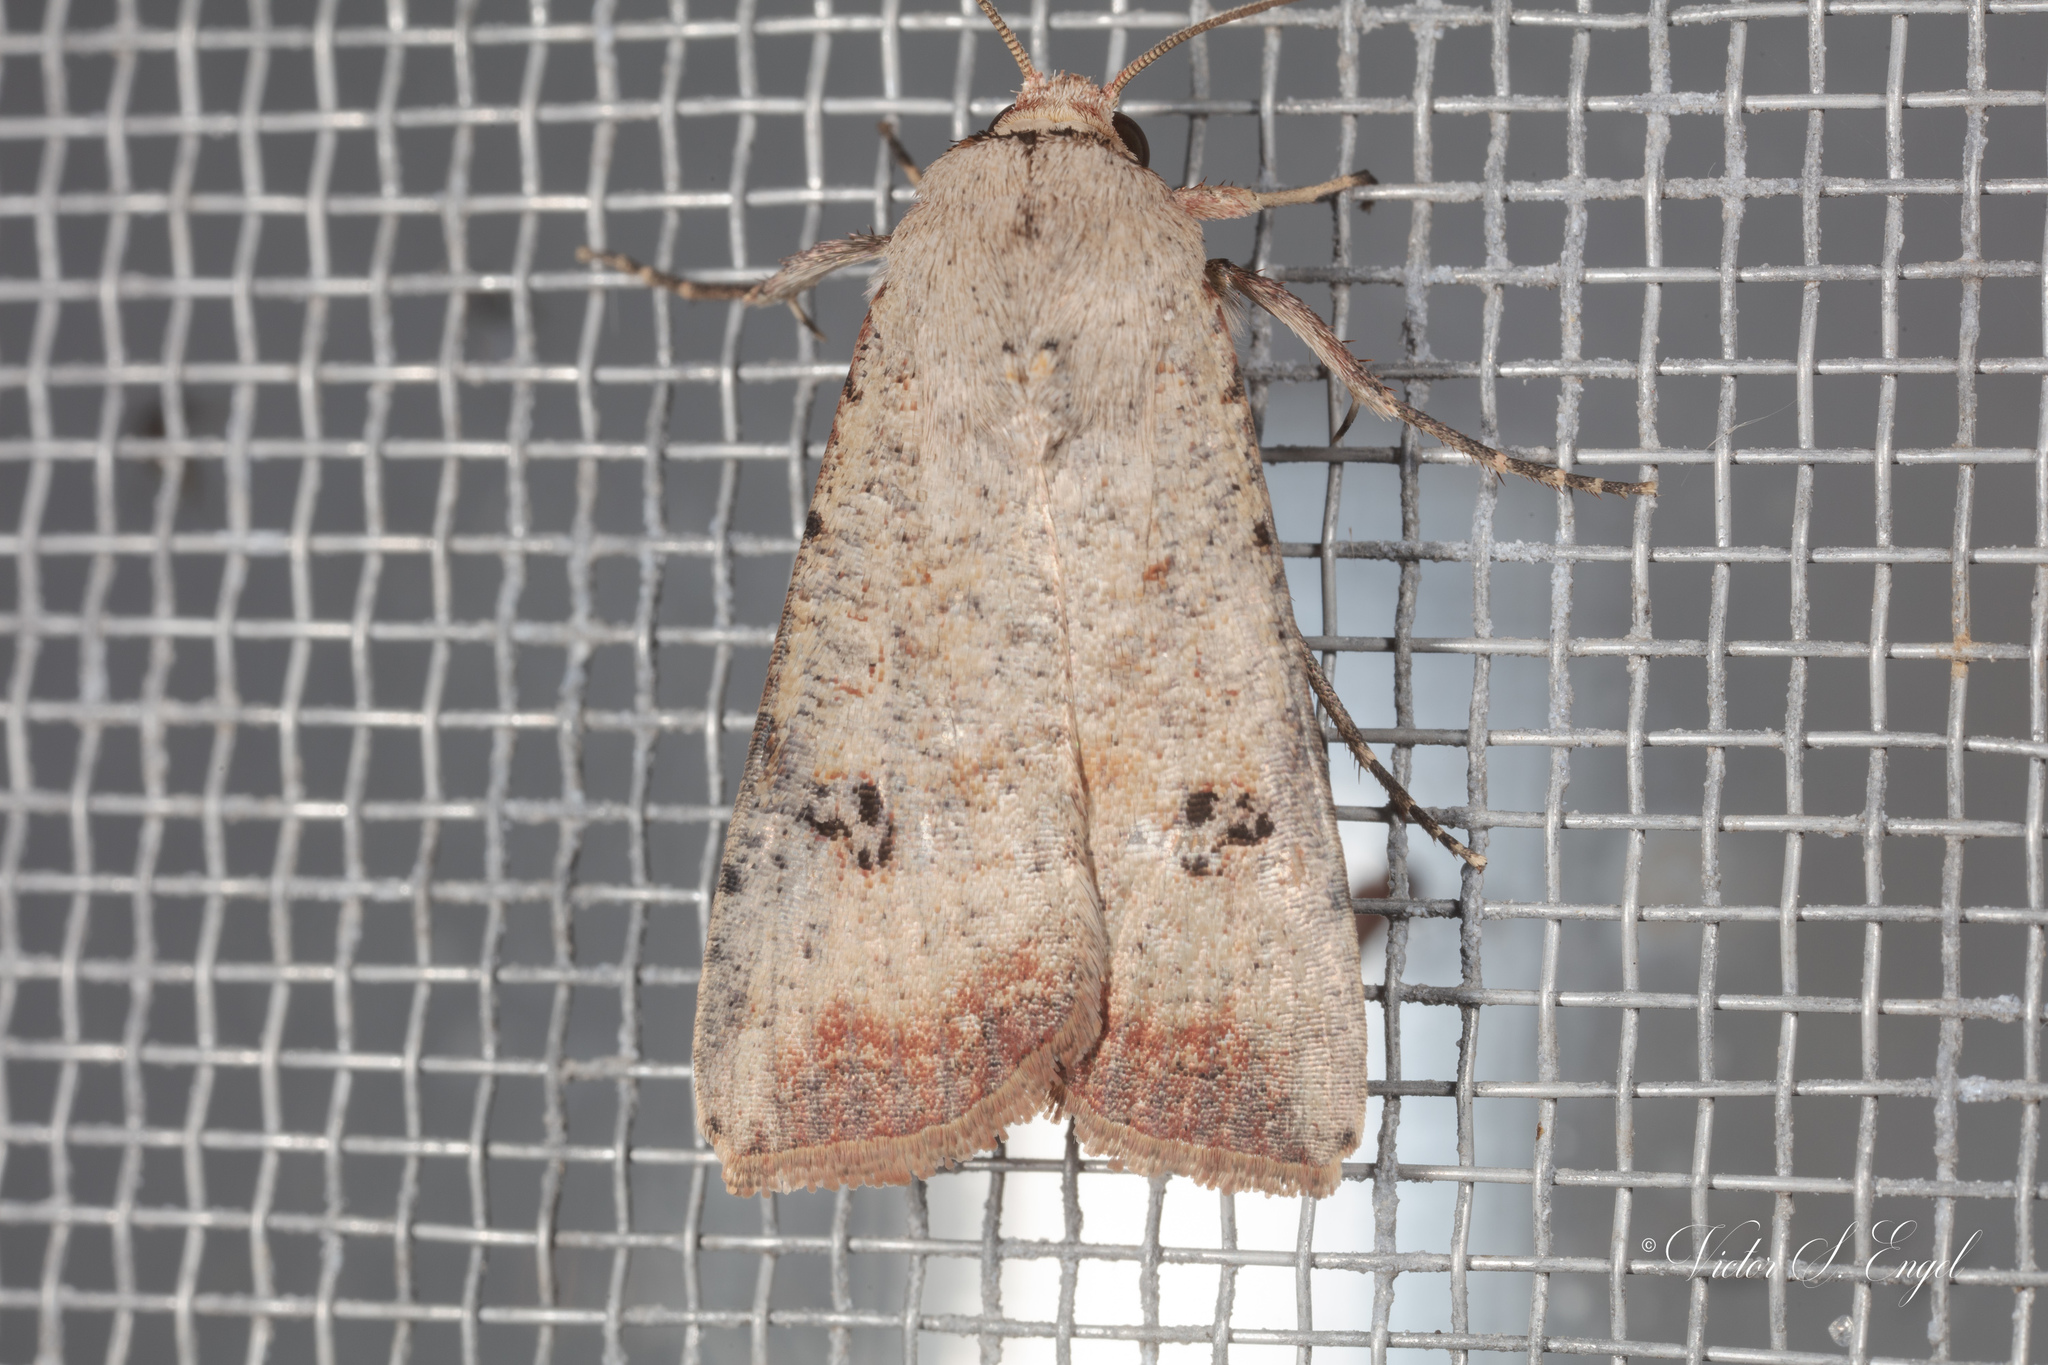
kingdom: Animalia
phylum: Arthropoda
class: Insecta
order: Lepidoptera
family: Noctuidae
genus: Anicla
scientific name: Anicla infecta
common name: Green cutworm
